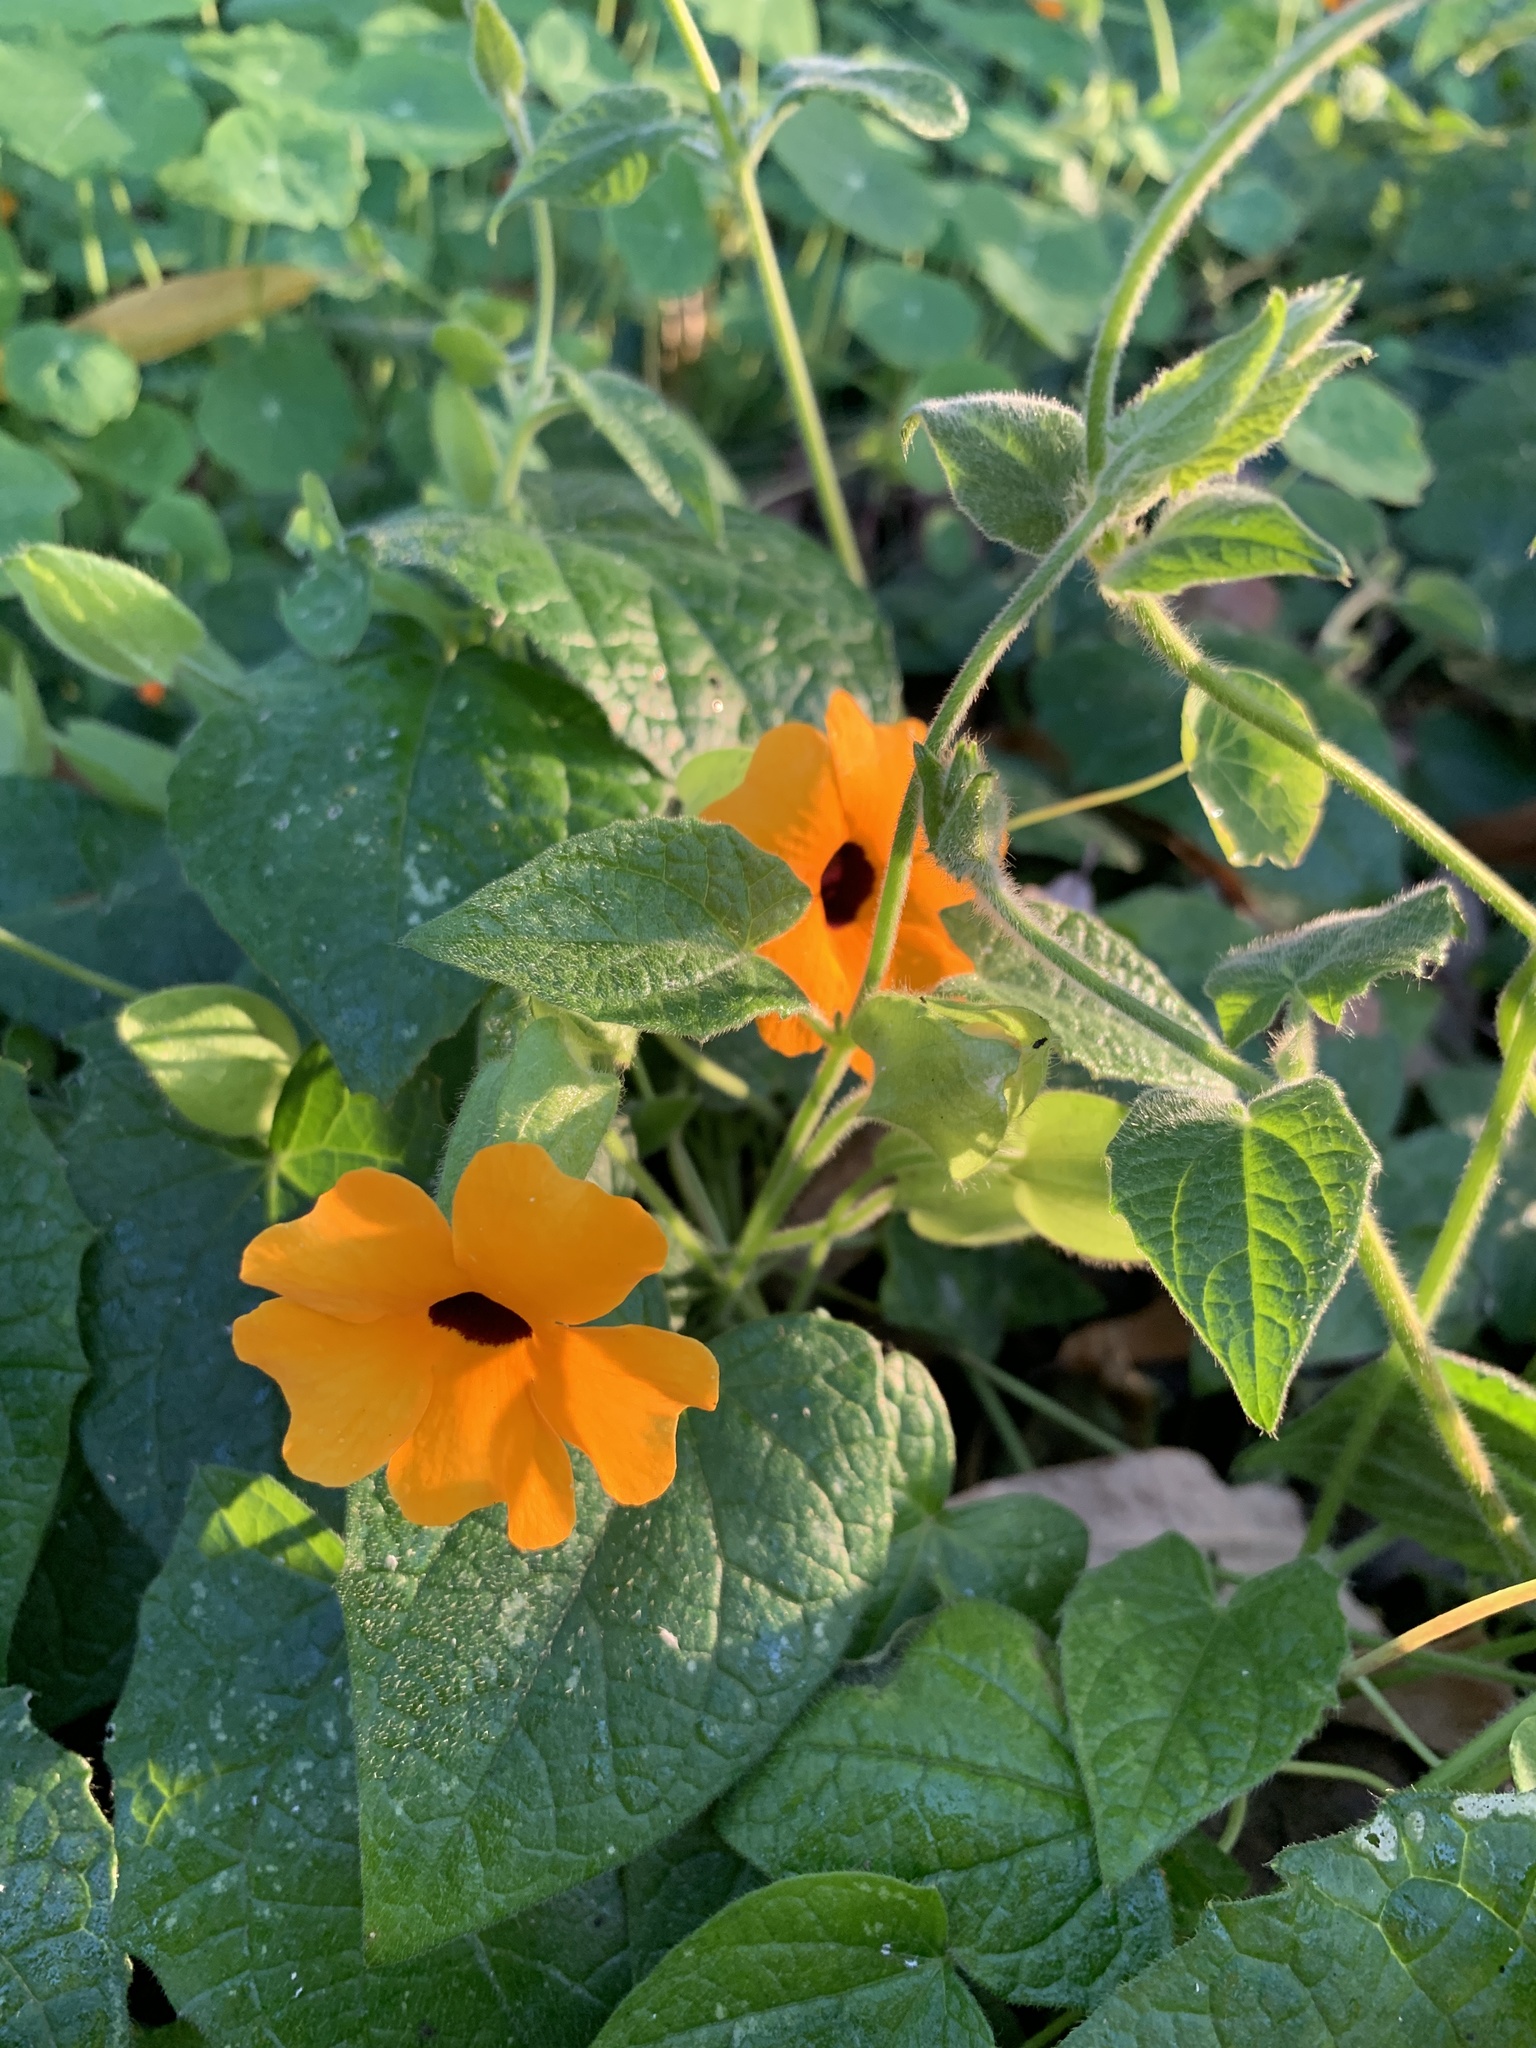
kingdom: Plantae
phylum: Tracheophyta
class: Magnoliopsida
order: Lamiales
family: Acanthaceae
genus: Thunbergia
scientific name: Thunbergia alata
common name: Blackeyed susan vine
